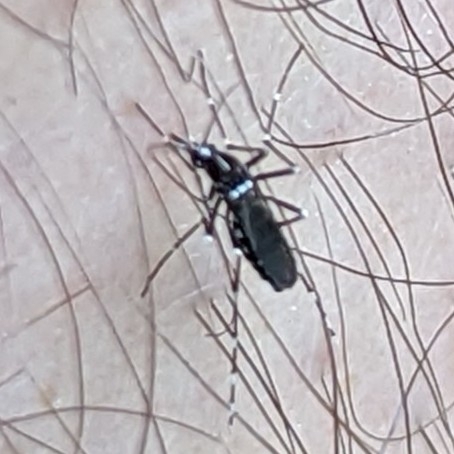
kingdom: Animalia
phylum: Arthropoda
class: Insecta
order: Diptera
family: Culicidae
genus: Aedes
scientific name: Aedes albopictus
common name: Tiger mosquito
